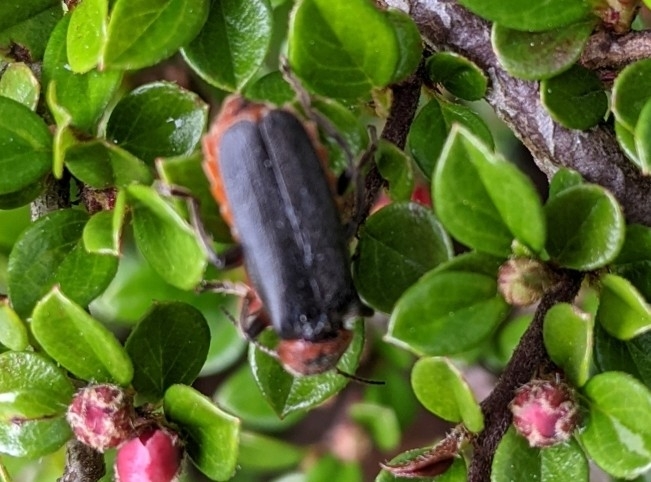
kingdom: Animalia
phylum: Arthropoda
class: Insecta
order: Coleoptera
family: Cantharidae
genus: Cantharis
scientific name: Cantharis rustica
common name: Soldier beetle
